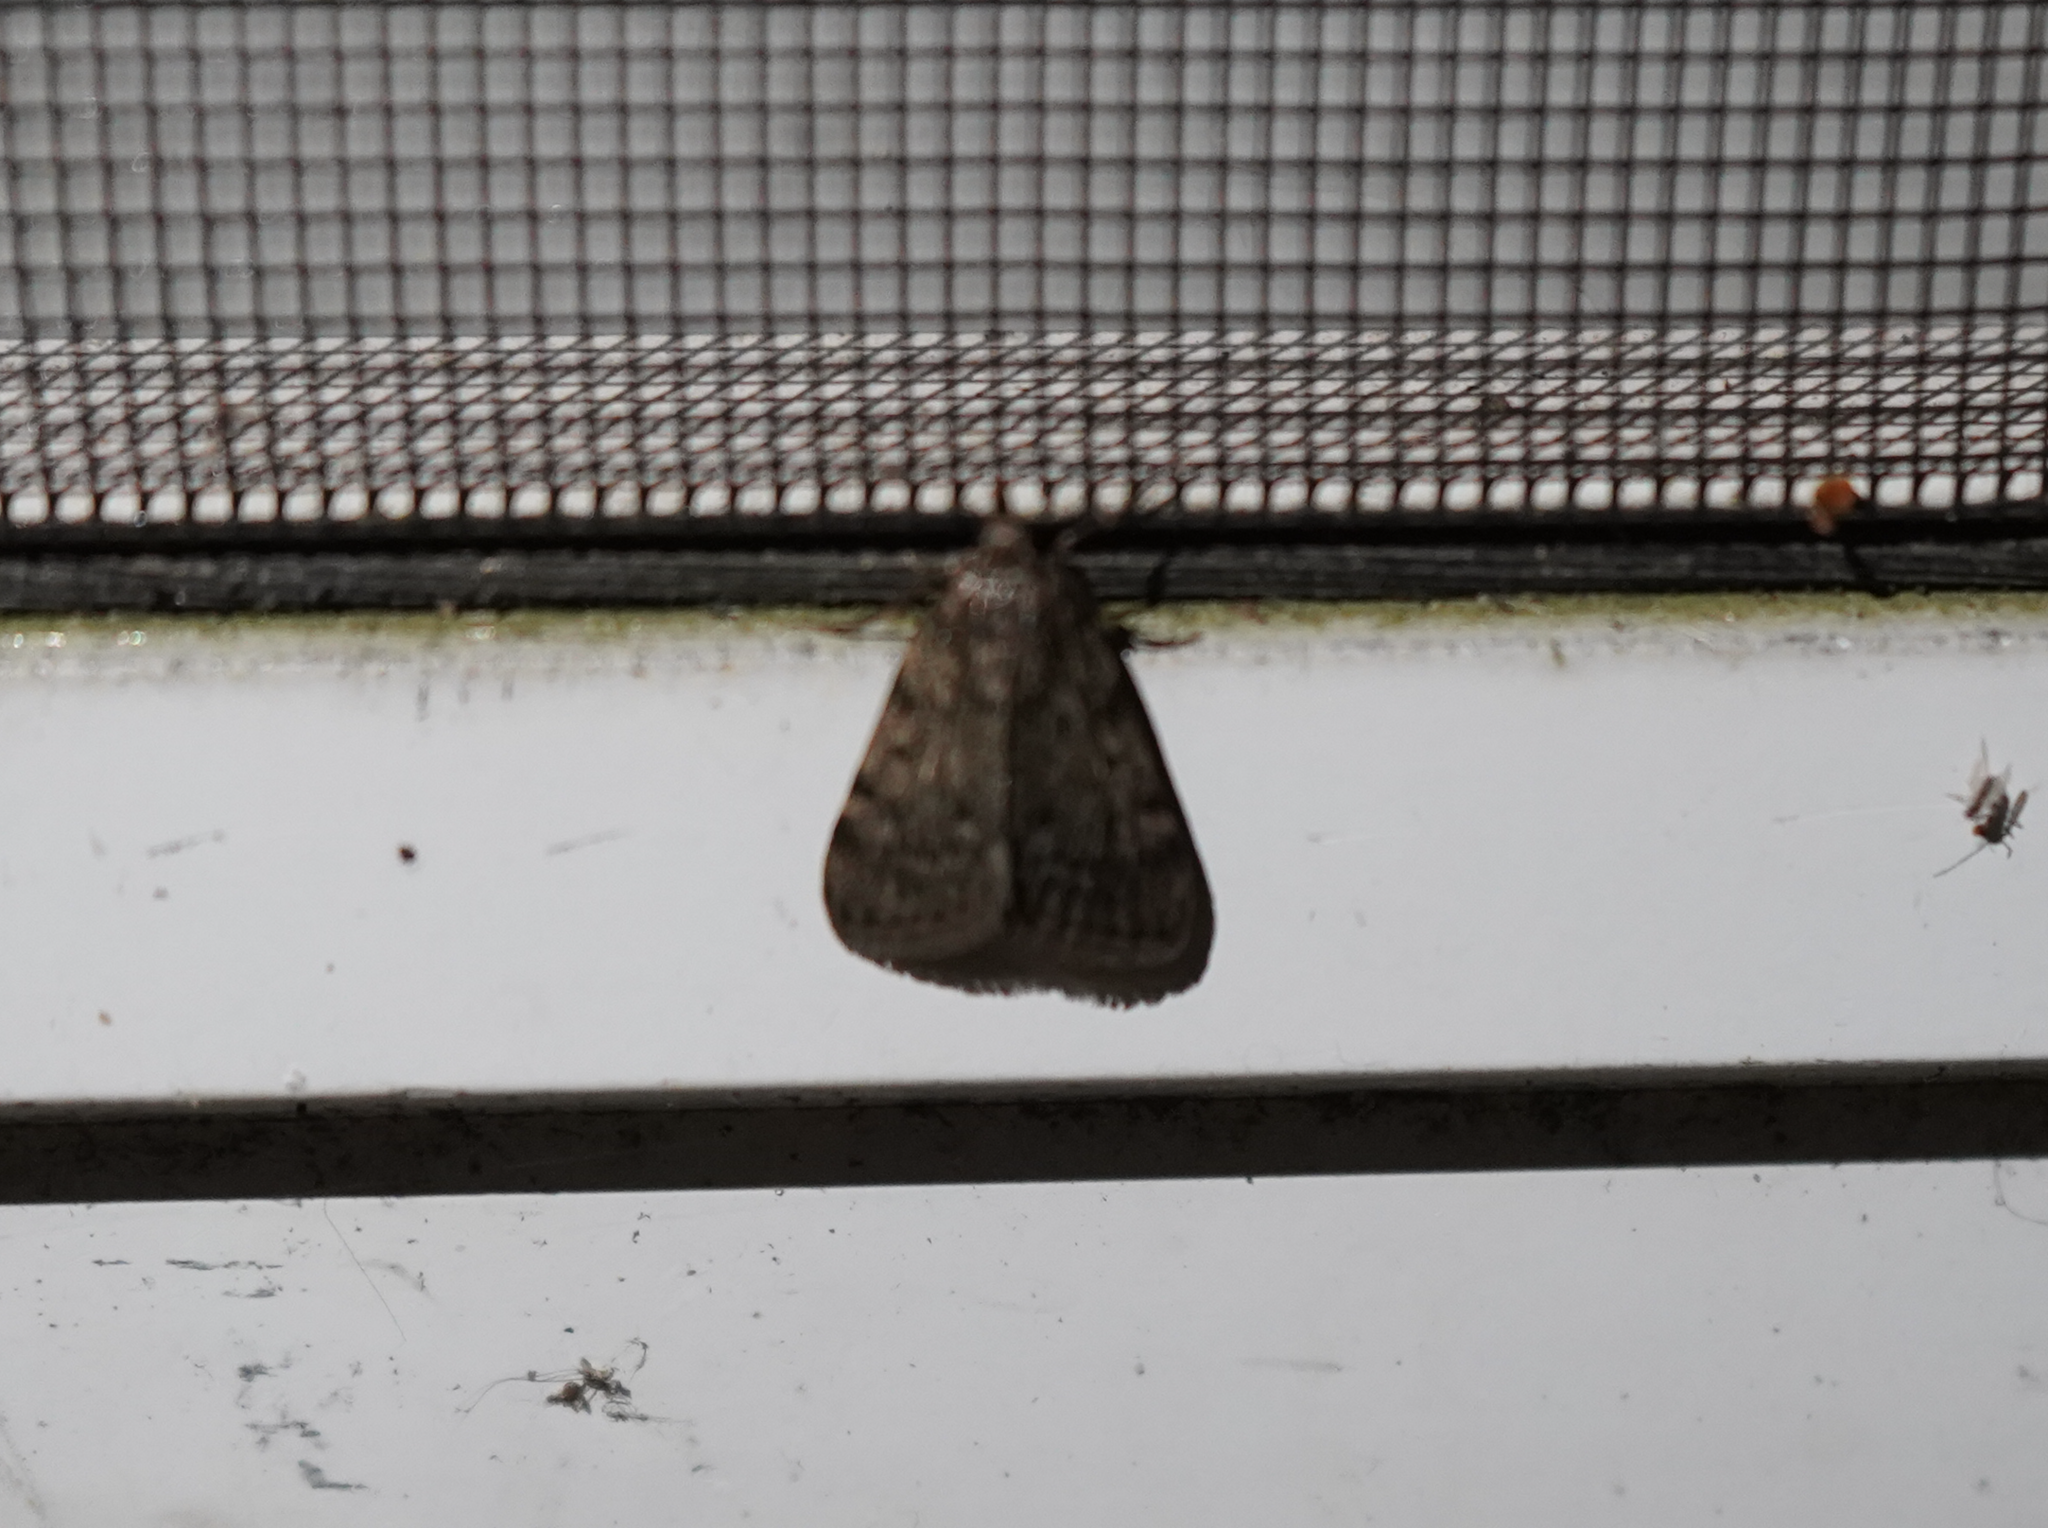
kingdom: Animalia
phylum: Arthropoda
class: Insecta
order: Lepidoptera
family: Pyralidae
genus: Aglossa
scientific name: Aglossa pinguinalis
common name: Large tabby
